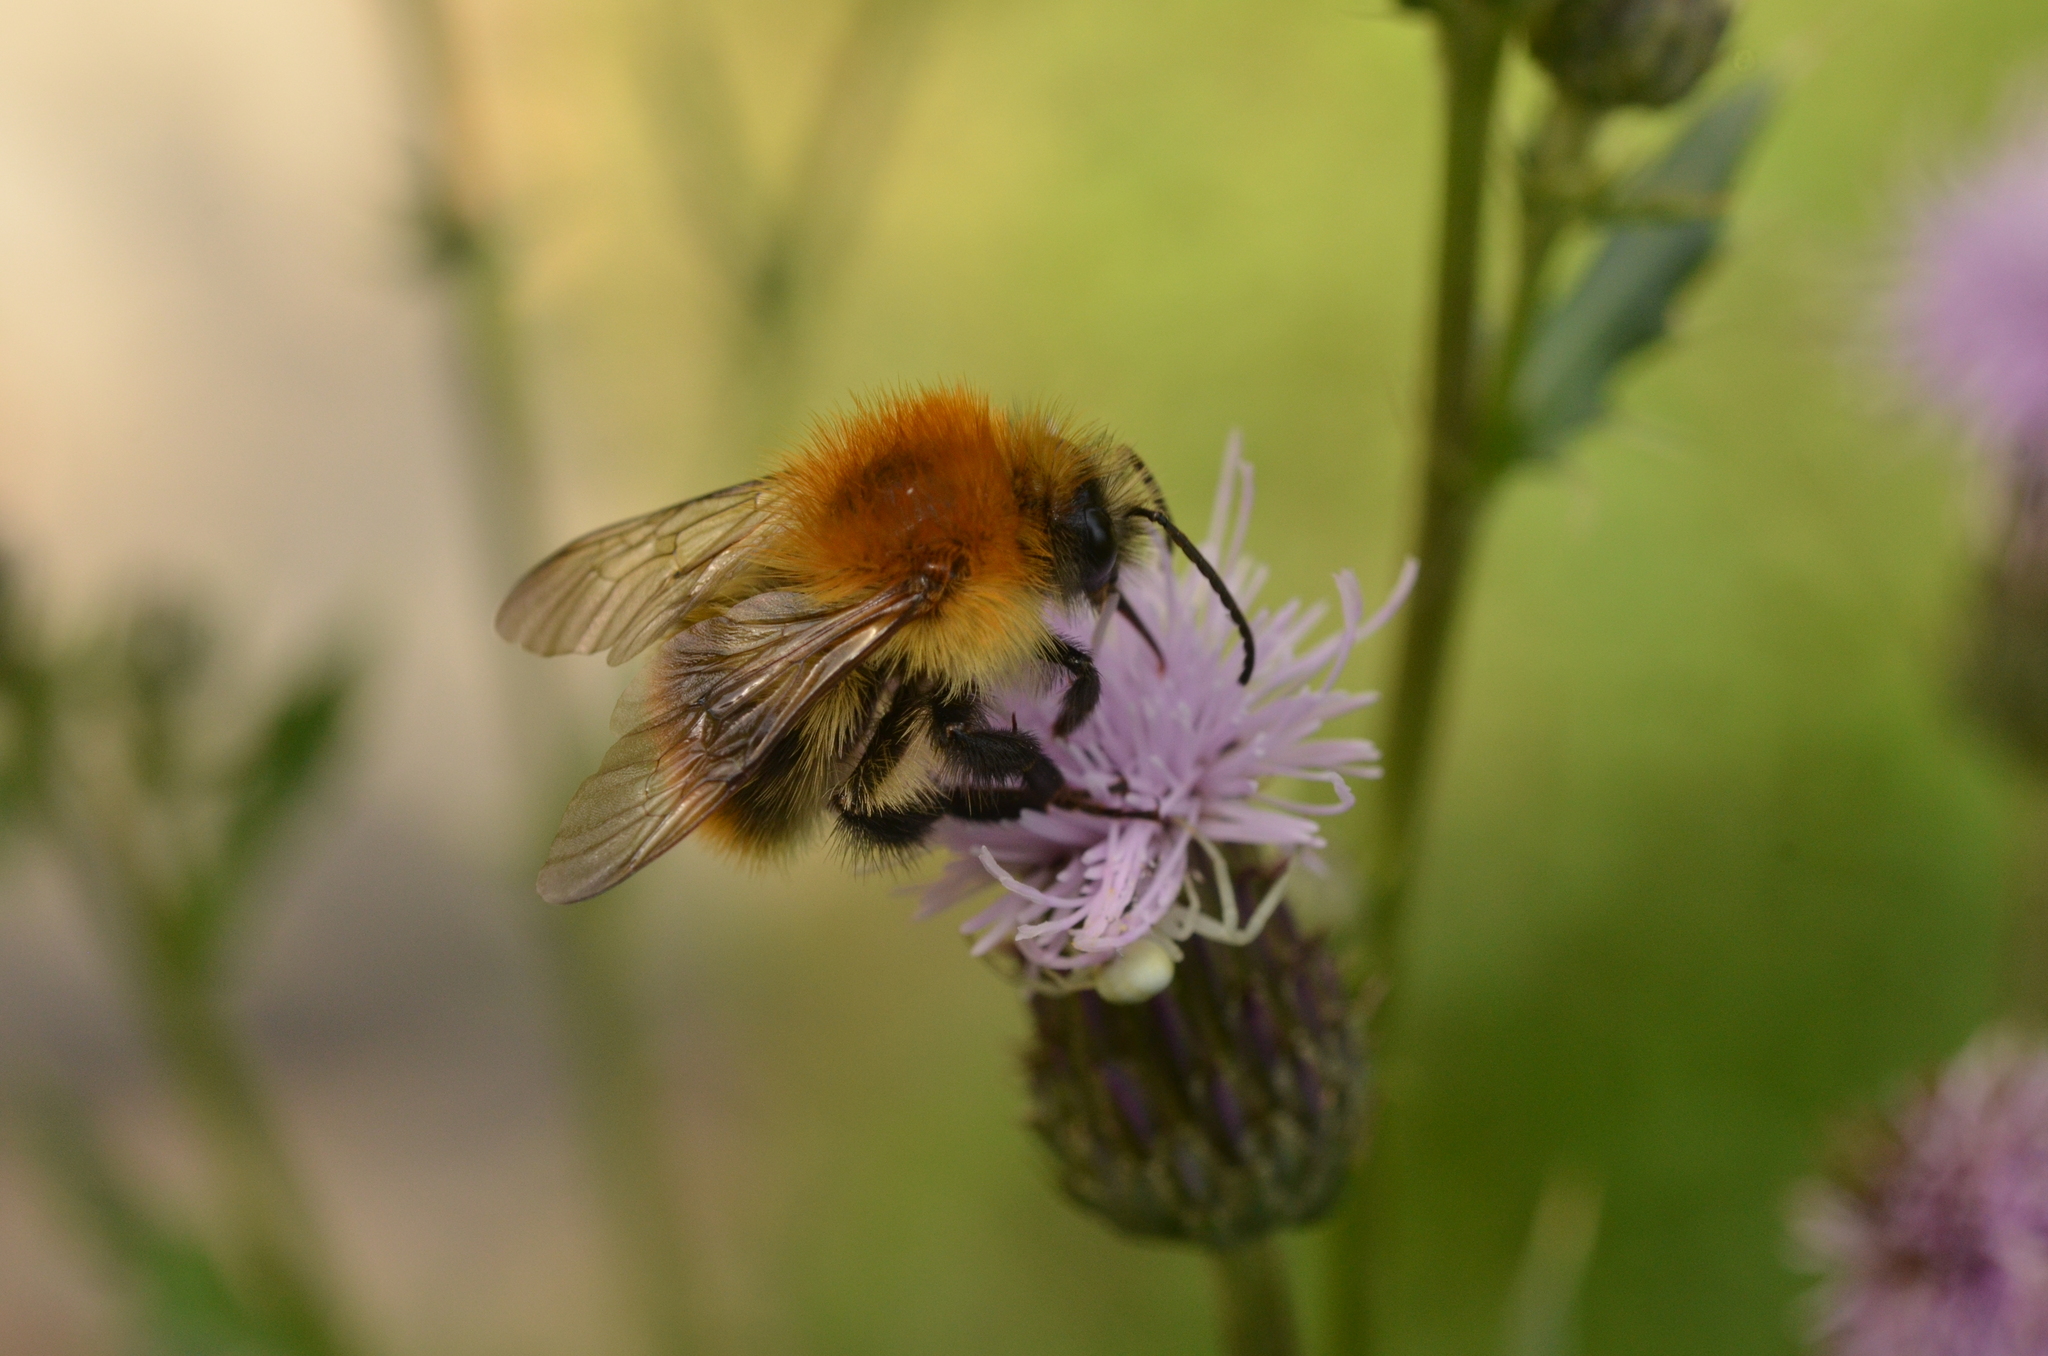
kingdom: Animalia
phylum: Arthropoda
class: Insecta
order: Hymenoptera
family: Apidae
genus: Bombus
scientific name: Bombus pascuorum
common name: Common carder bee
